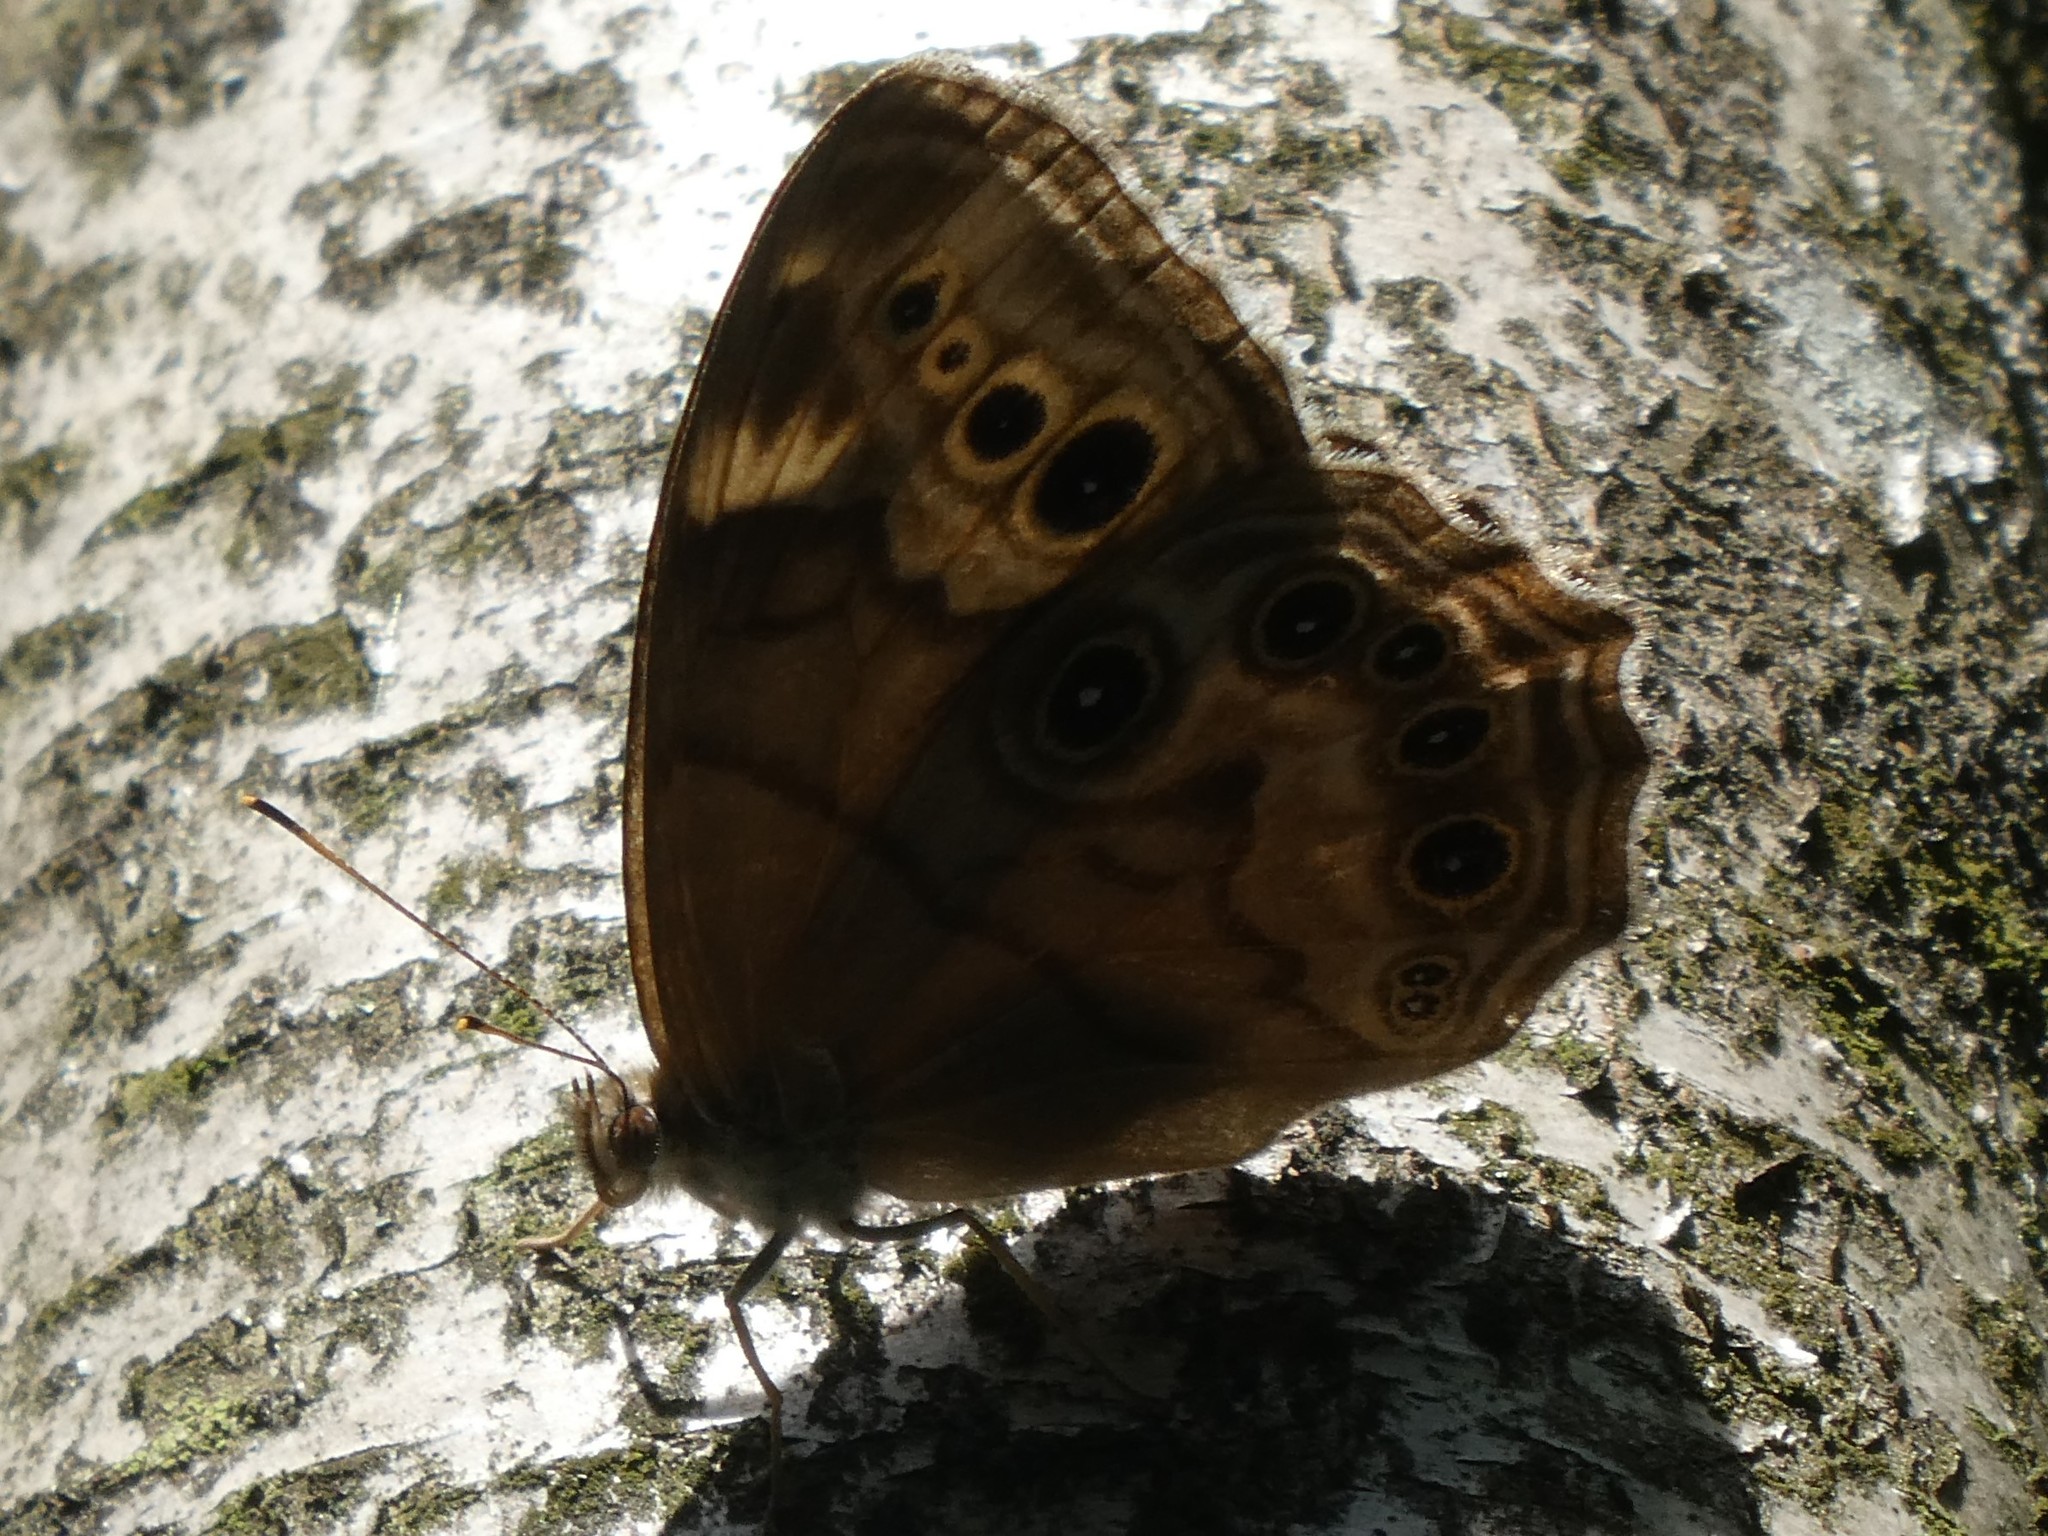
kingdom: Animalia
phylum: Arthropoda
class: Insecta
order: Lepidoptera
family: Nymphalidae
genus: Lethe
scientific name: Lethe anthedon
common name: Northern pearly-eye
